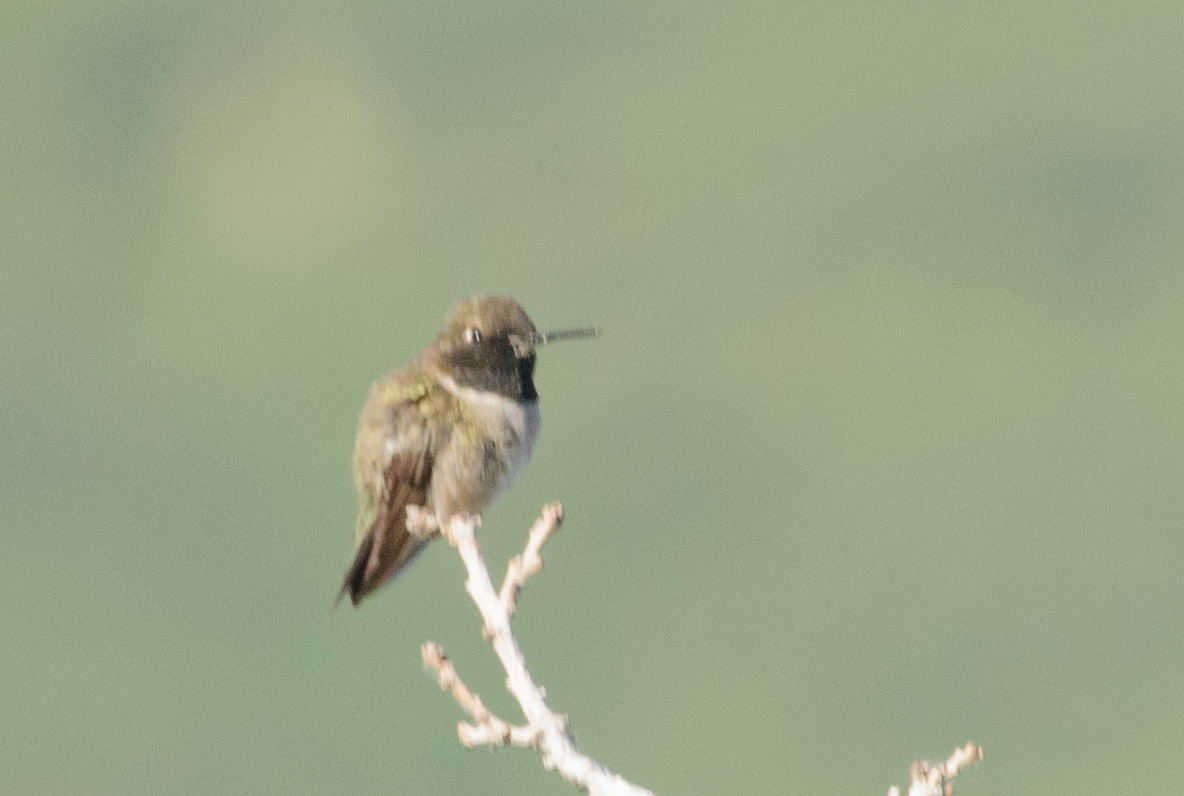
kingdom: Animalia
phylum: Chordata
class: Aves
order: Apodiformes
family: Trochilidae
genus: Archilochus
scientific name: Archilochus alexandri
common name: Black-chinned hummingbird
